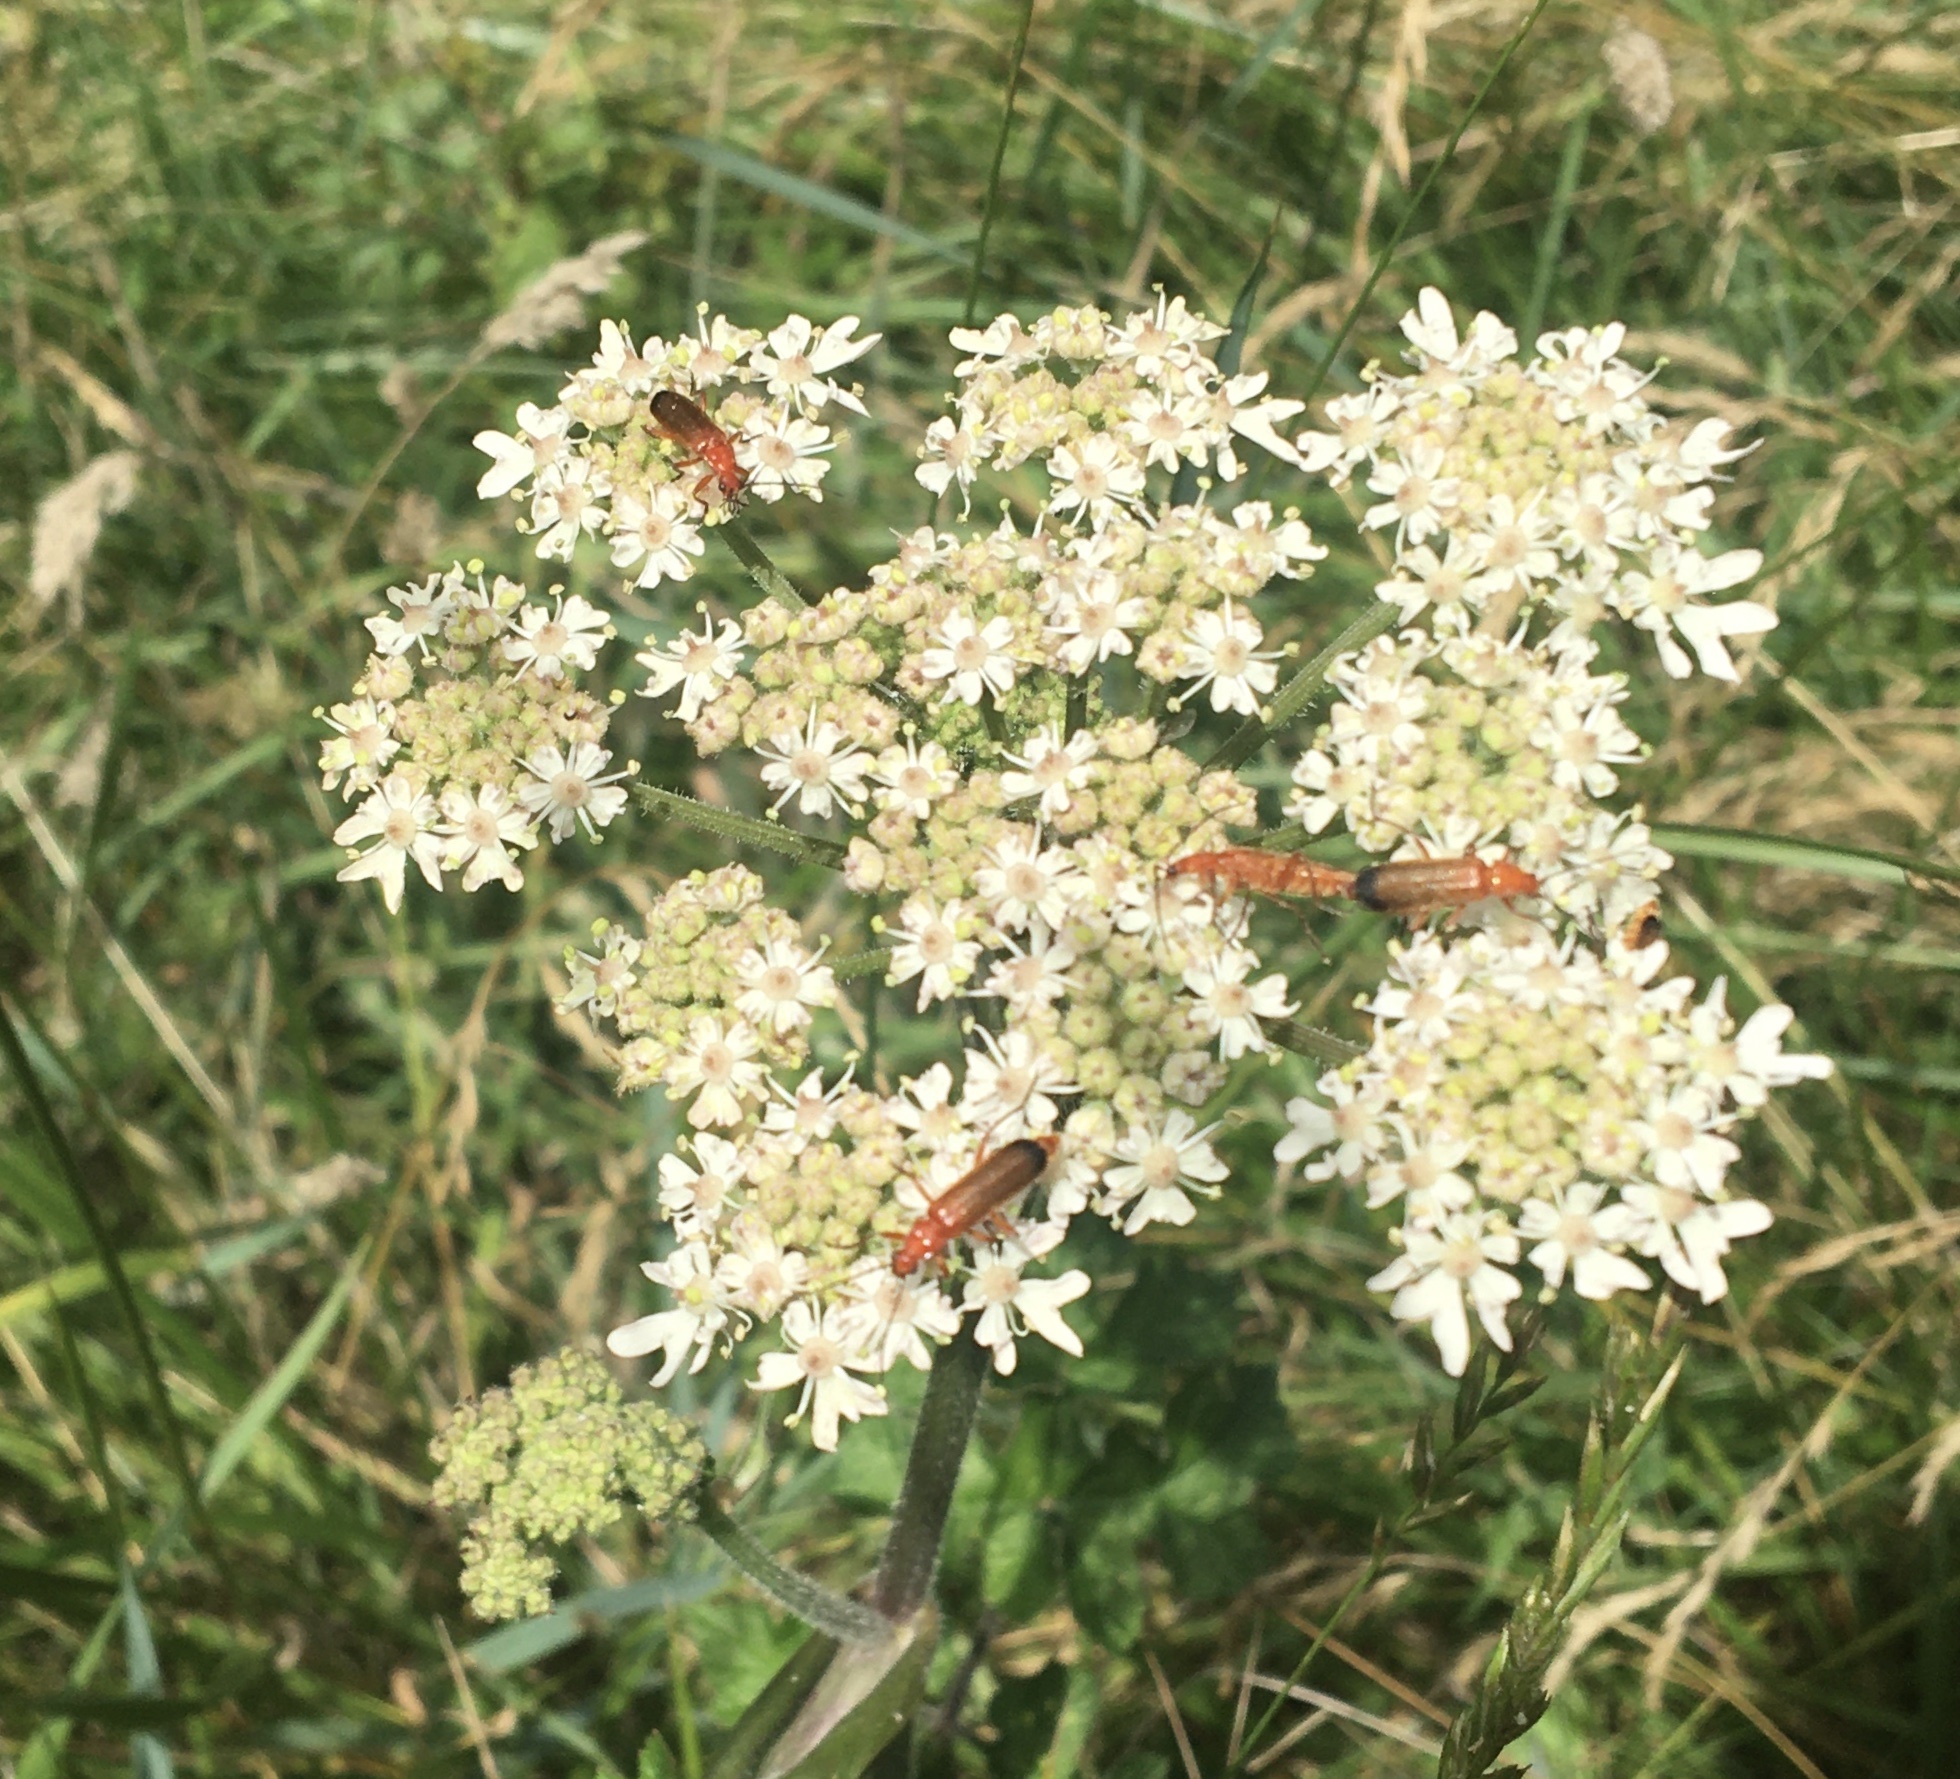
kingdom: Animalia
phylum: Arthropoda
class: Insecta
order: Coleoptera
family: Cantharidae
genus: Rhagonycha
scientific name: Rhagonycha fulva
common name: Common red soldier beetle
